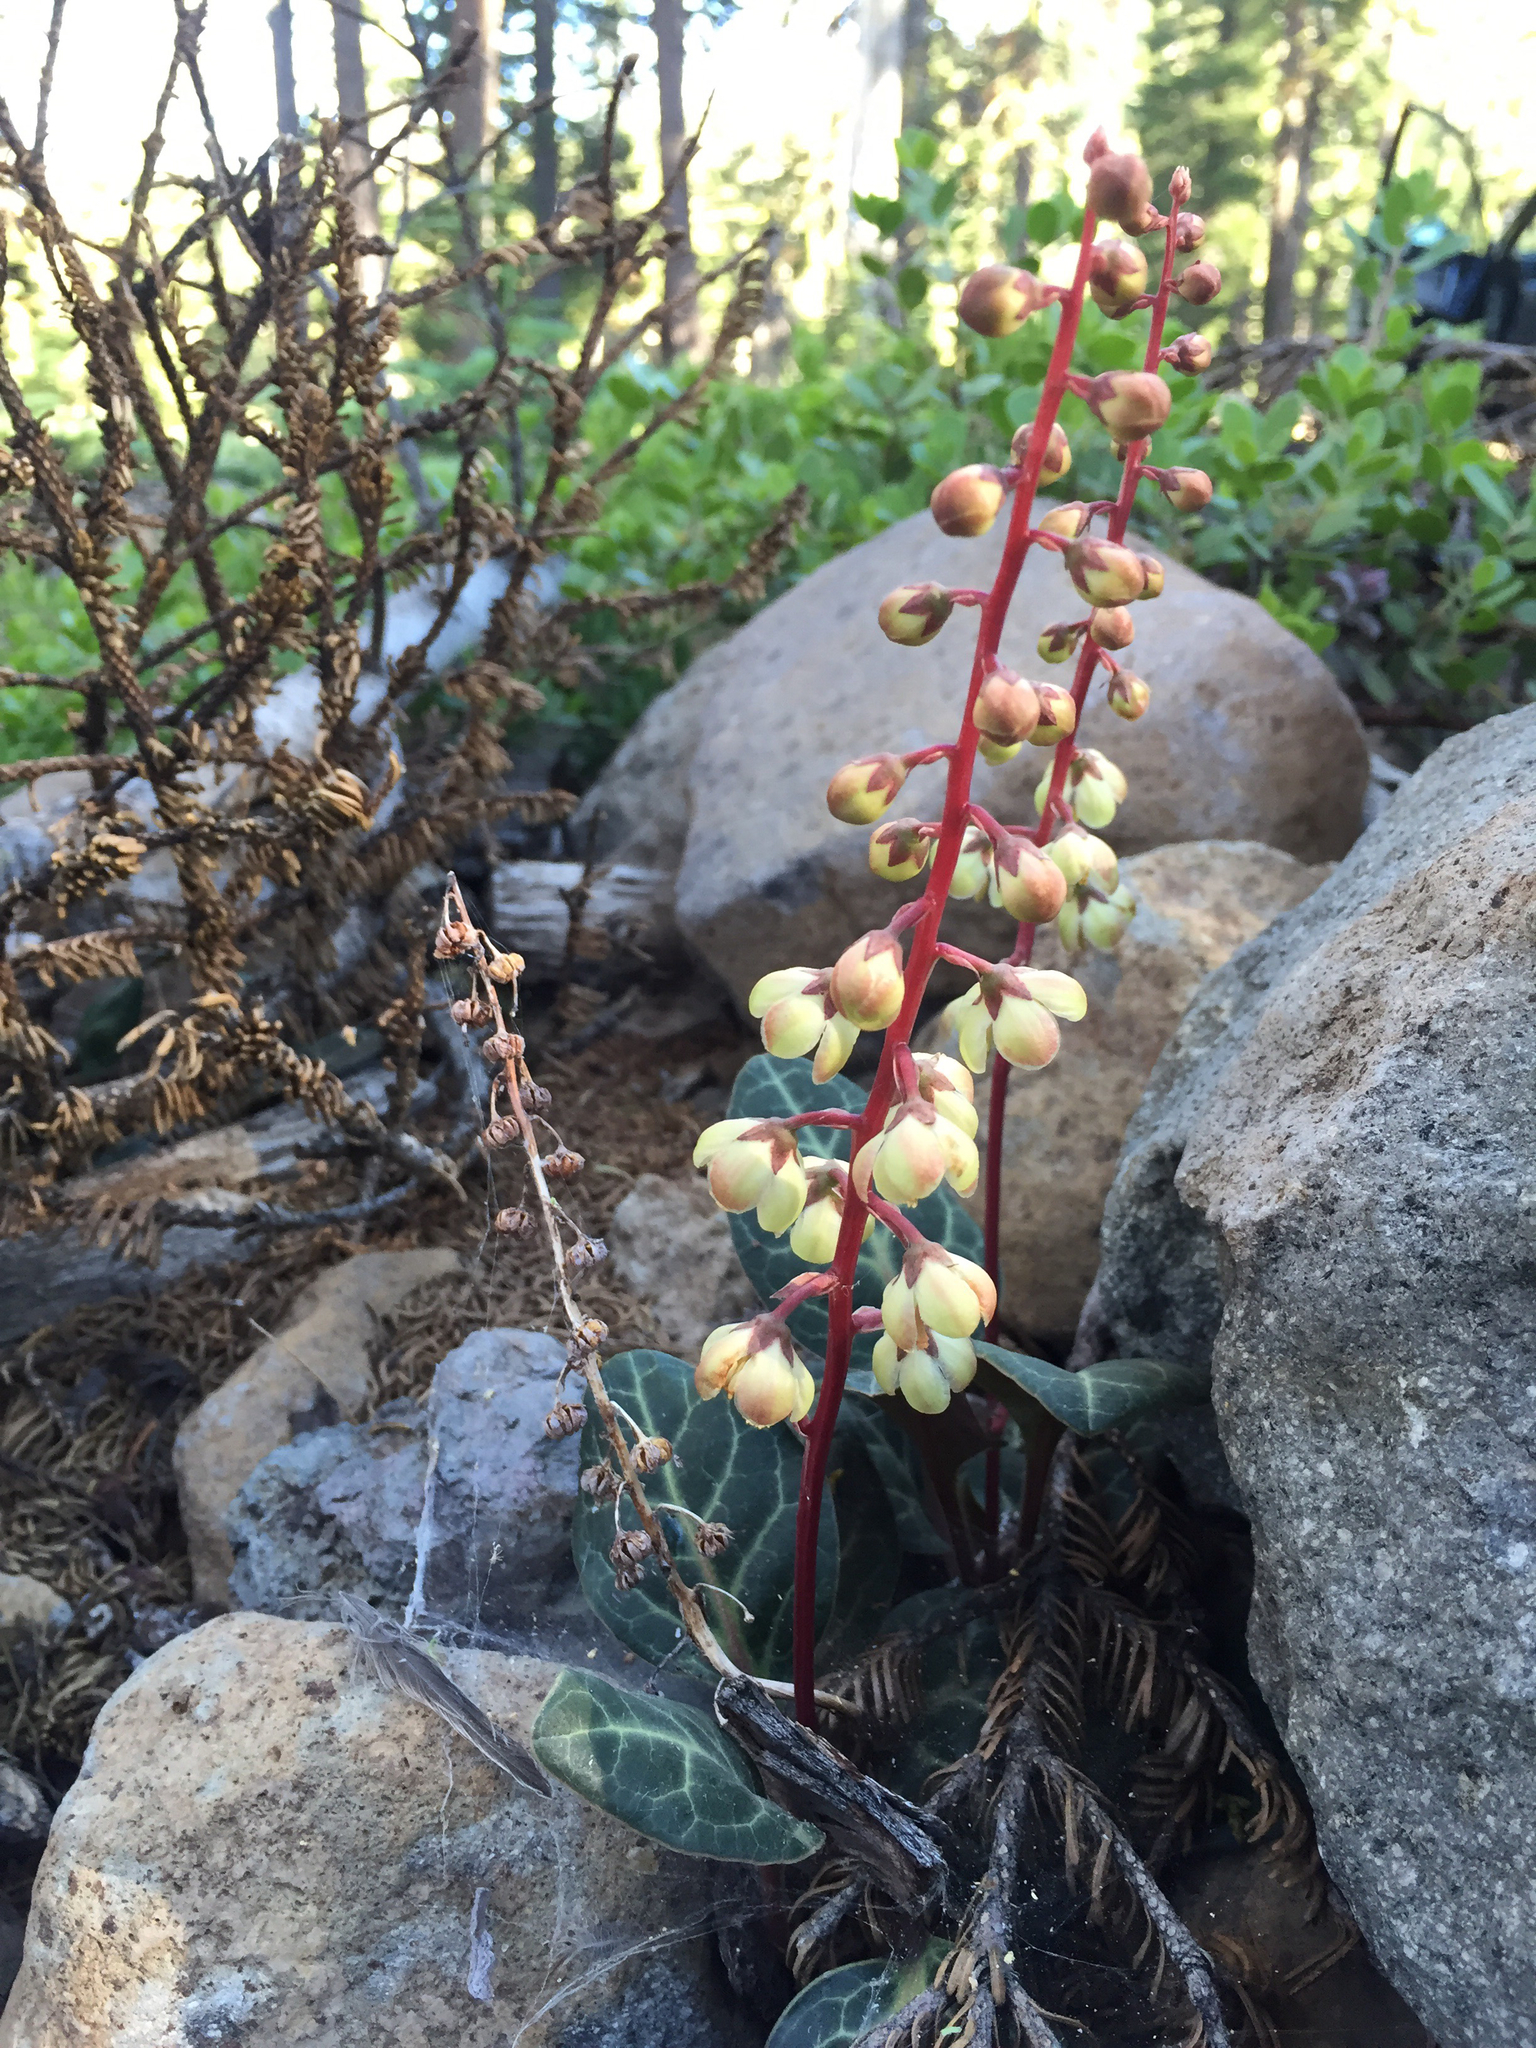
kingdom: Plantae
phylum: Tracheophyta
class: Magnoliopsida
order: Ericales
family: Ericaceae
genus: Pyrola
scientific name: Pyrola picta
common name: White-vein wintergreen
